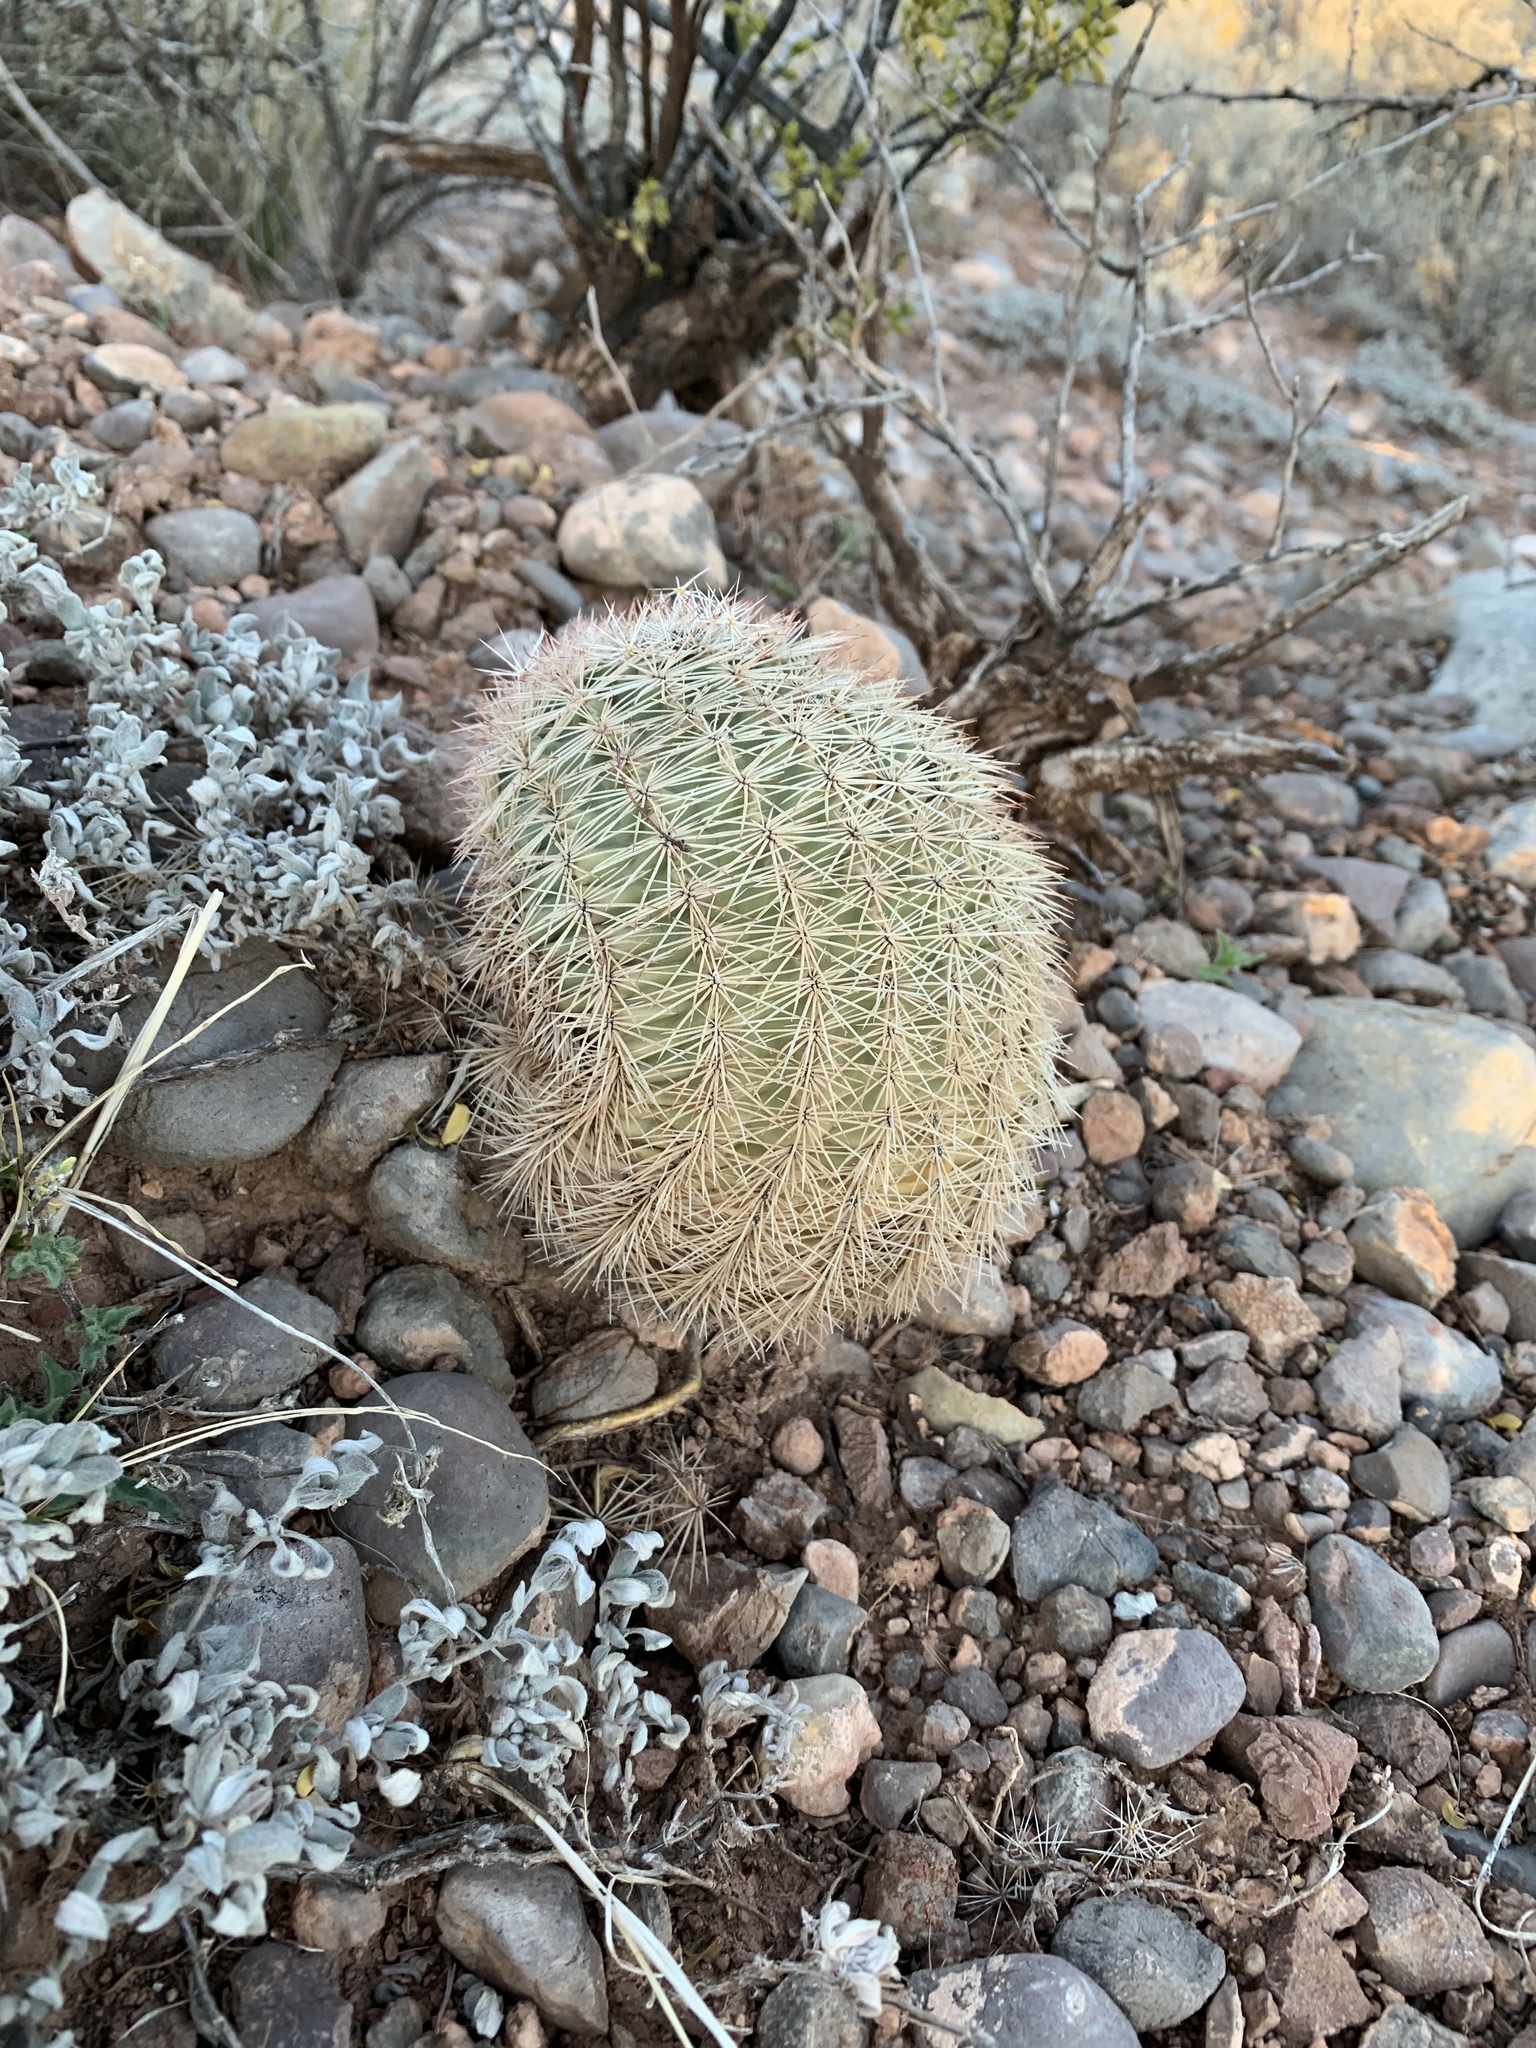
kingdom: Plantae
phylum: Tracheophyta
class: Magnoliopsida
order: Caryophyllales
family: Cactaceae
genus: Echinocereus
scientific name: Echinocereus dasyacanthus
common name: Spiny hedgehog cactus
